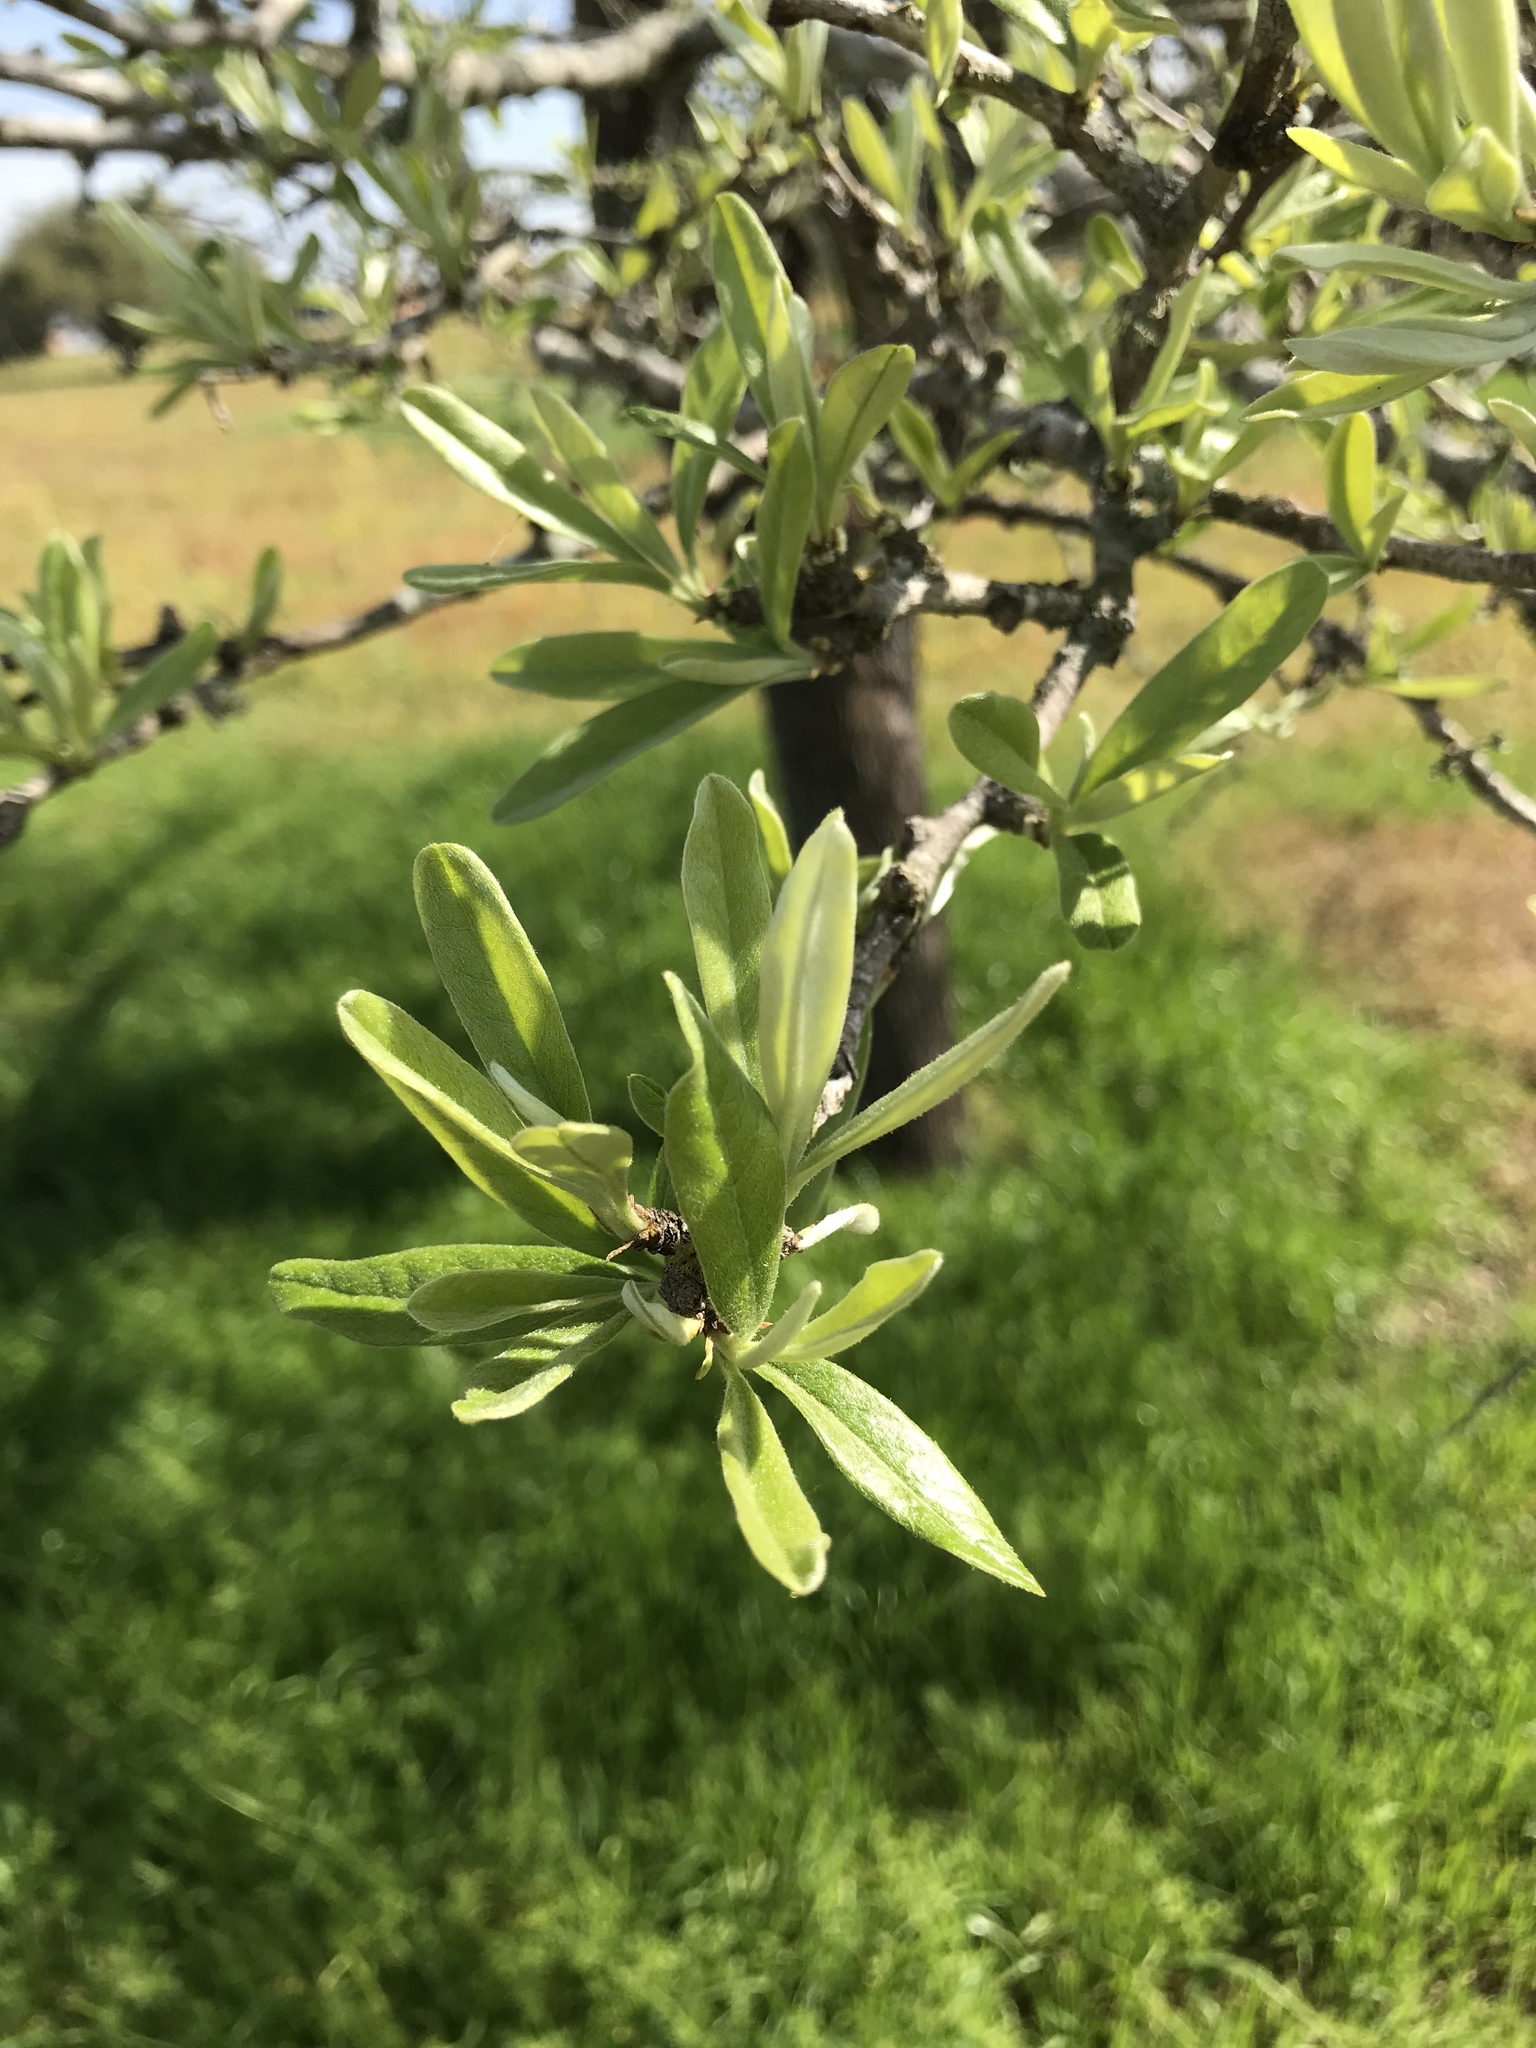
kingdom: Plantae
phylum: Tracheophyta
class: Magnoliopsida
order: Ericales
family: Sapotaceae
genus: Sideroxylon
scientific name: Sideroxylon lanuginosum
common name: Chittamwood
